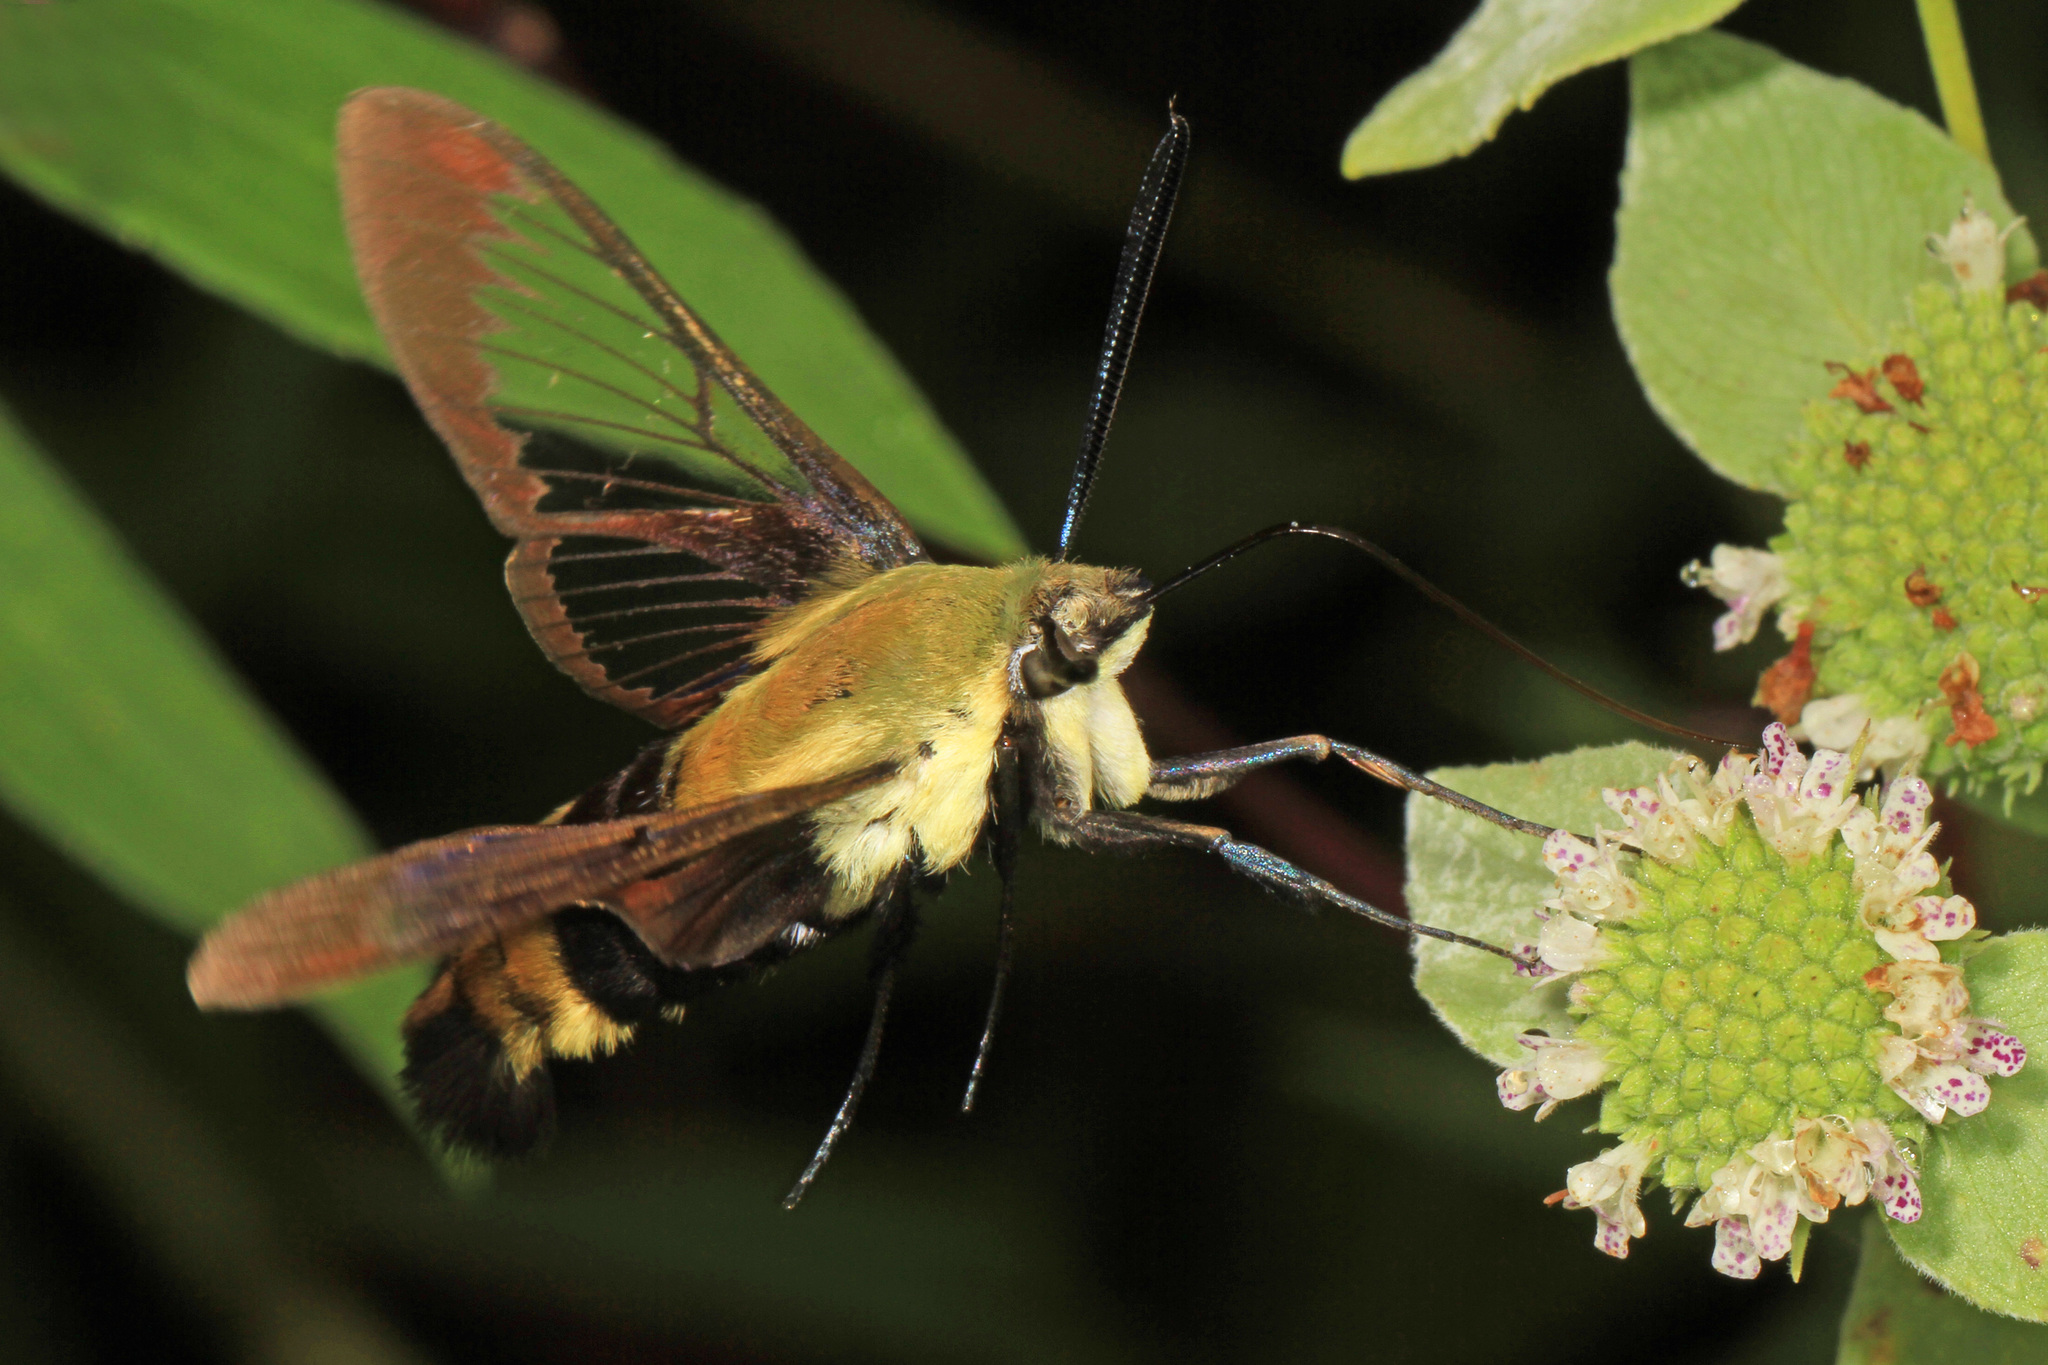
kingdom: Animalia
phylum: Arthropoda
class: Insecta
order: Lepidoptera
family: Sphingidae
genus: Hemaris
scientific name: Hemaris diffinis
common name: Bumblebee moth
